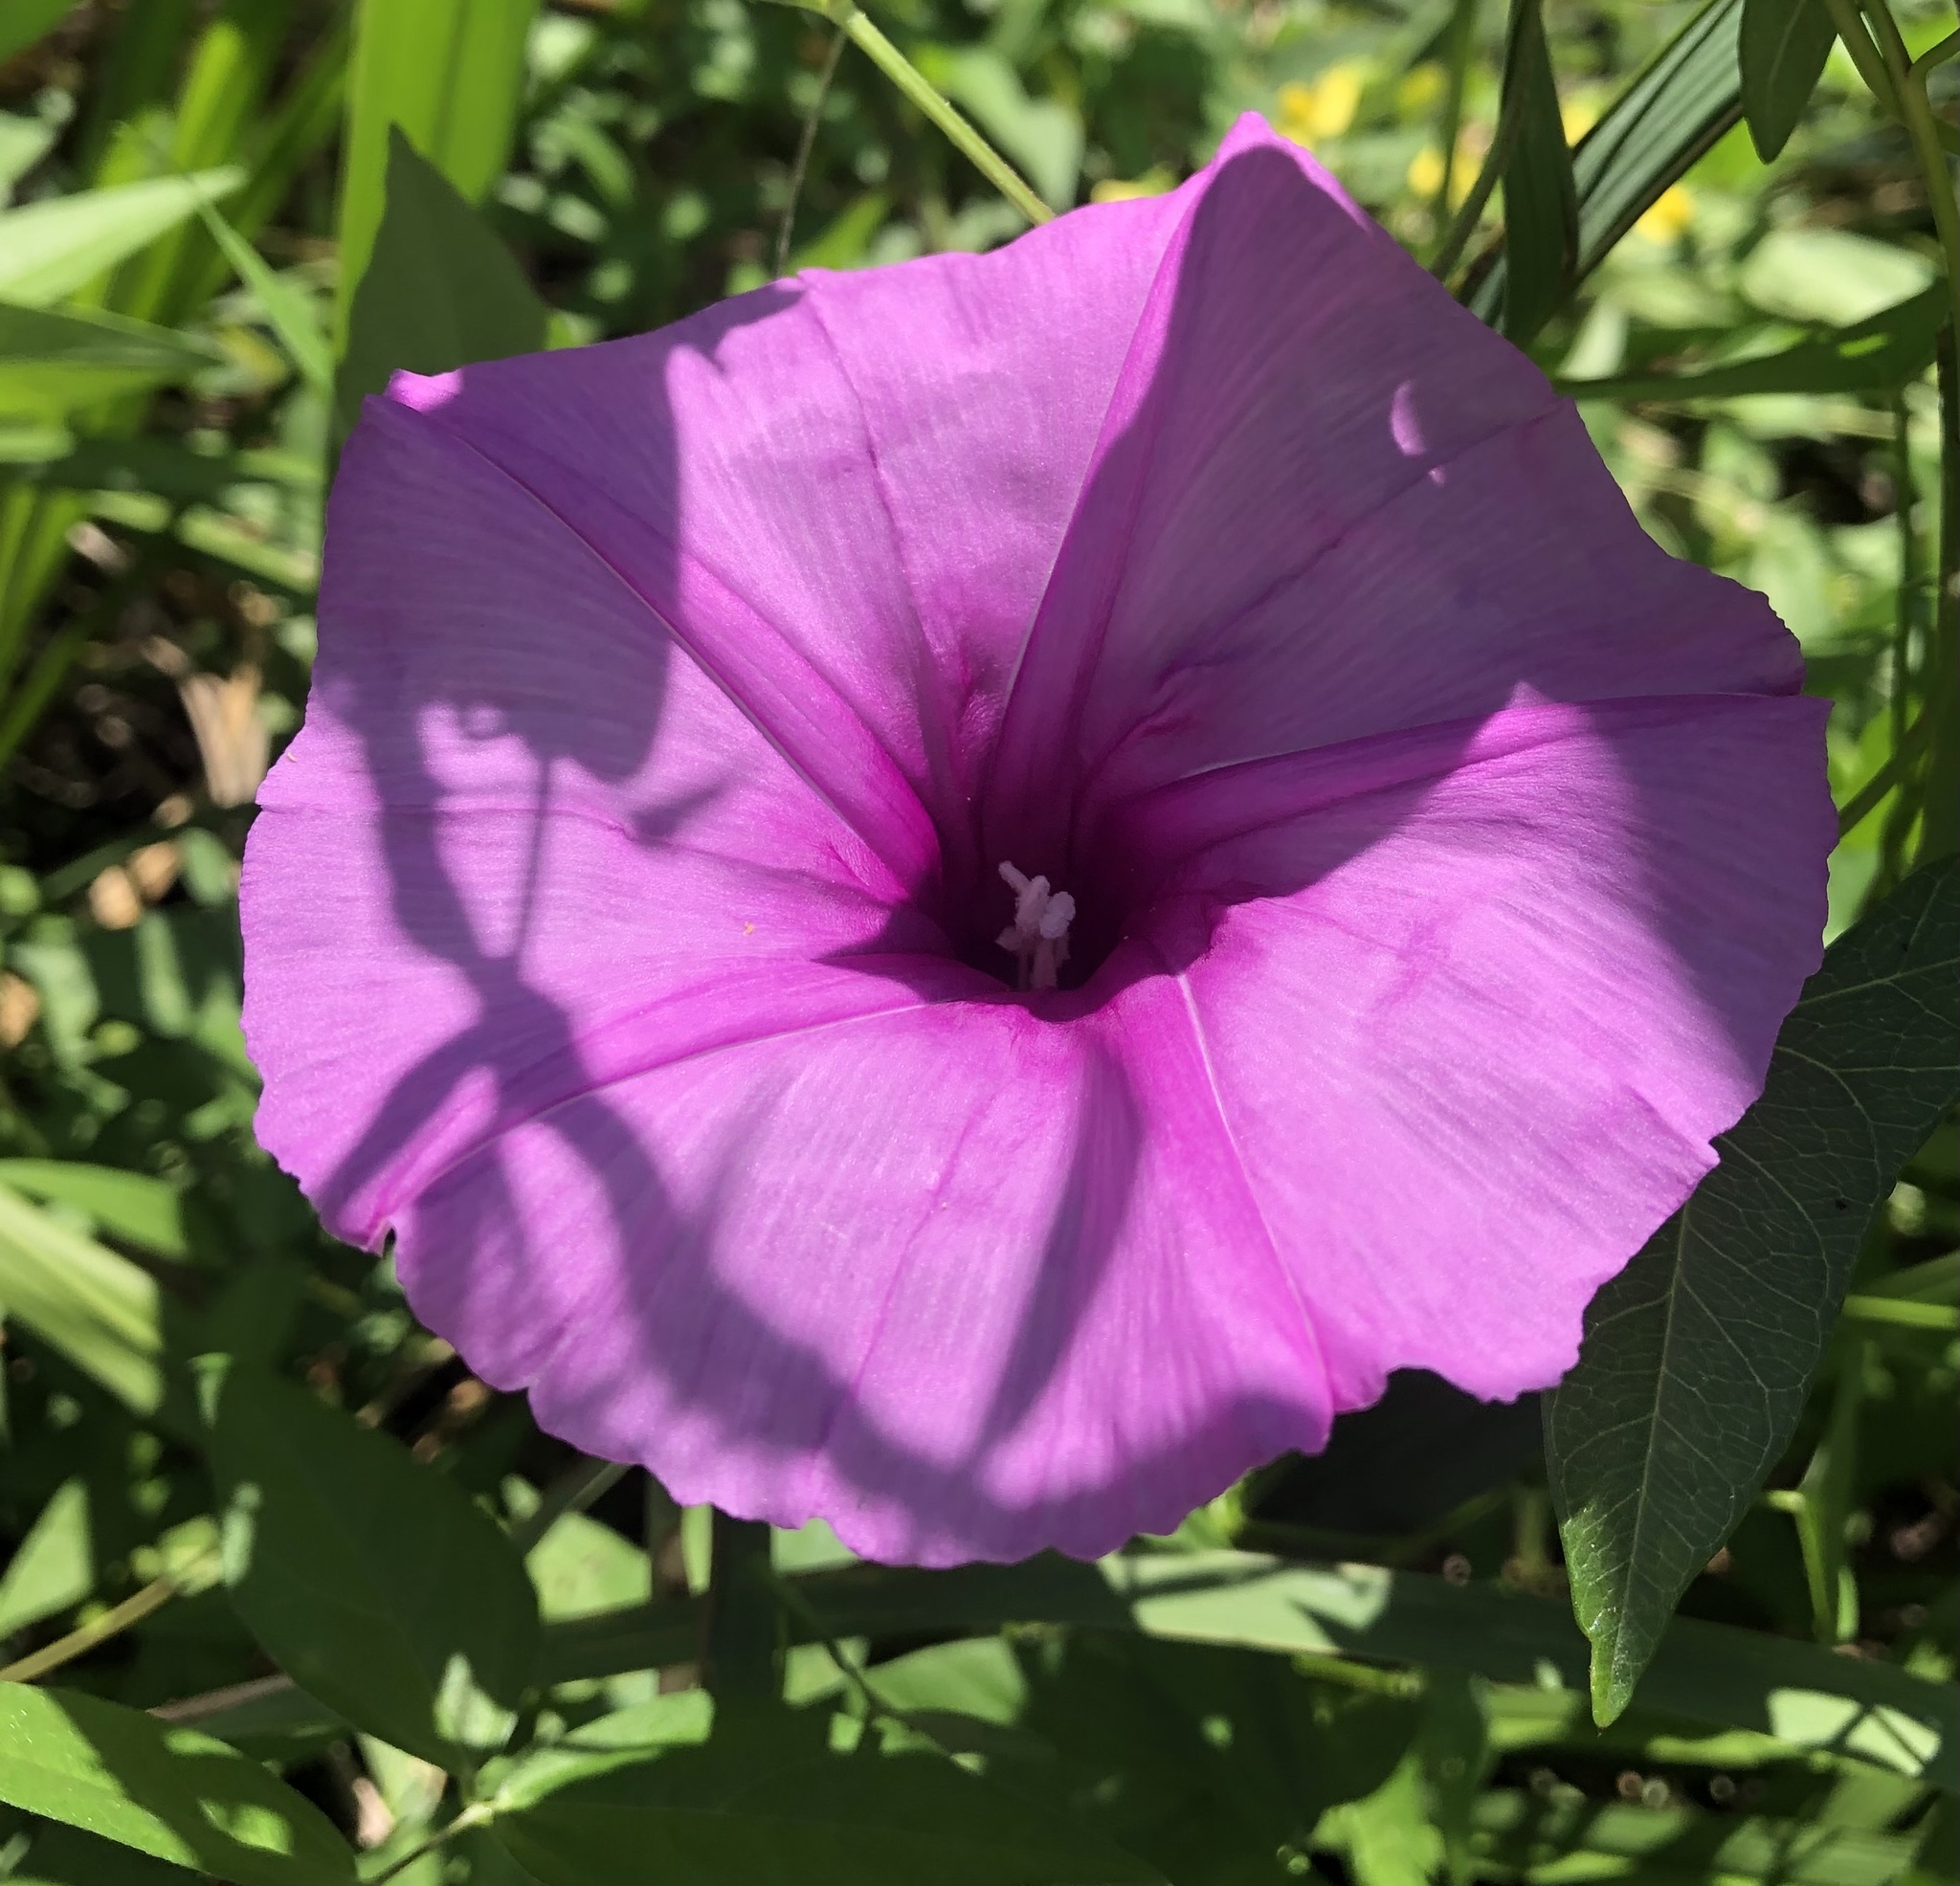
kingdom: Plantae
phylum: Tracheophyta
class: Magnoliopsida
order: Solanales
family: Convolvulaceae
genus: Ipomoea
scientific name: Ipomoea sagittata
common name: Saltmarsh morning glory
